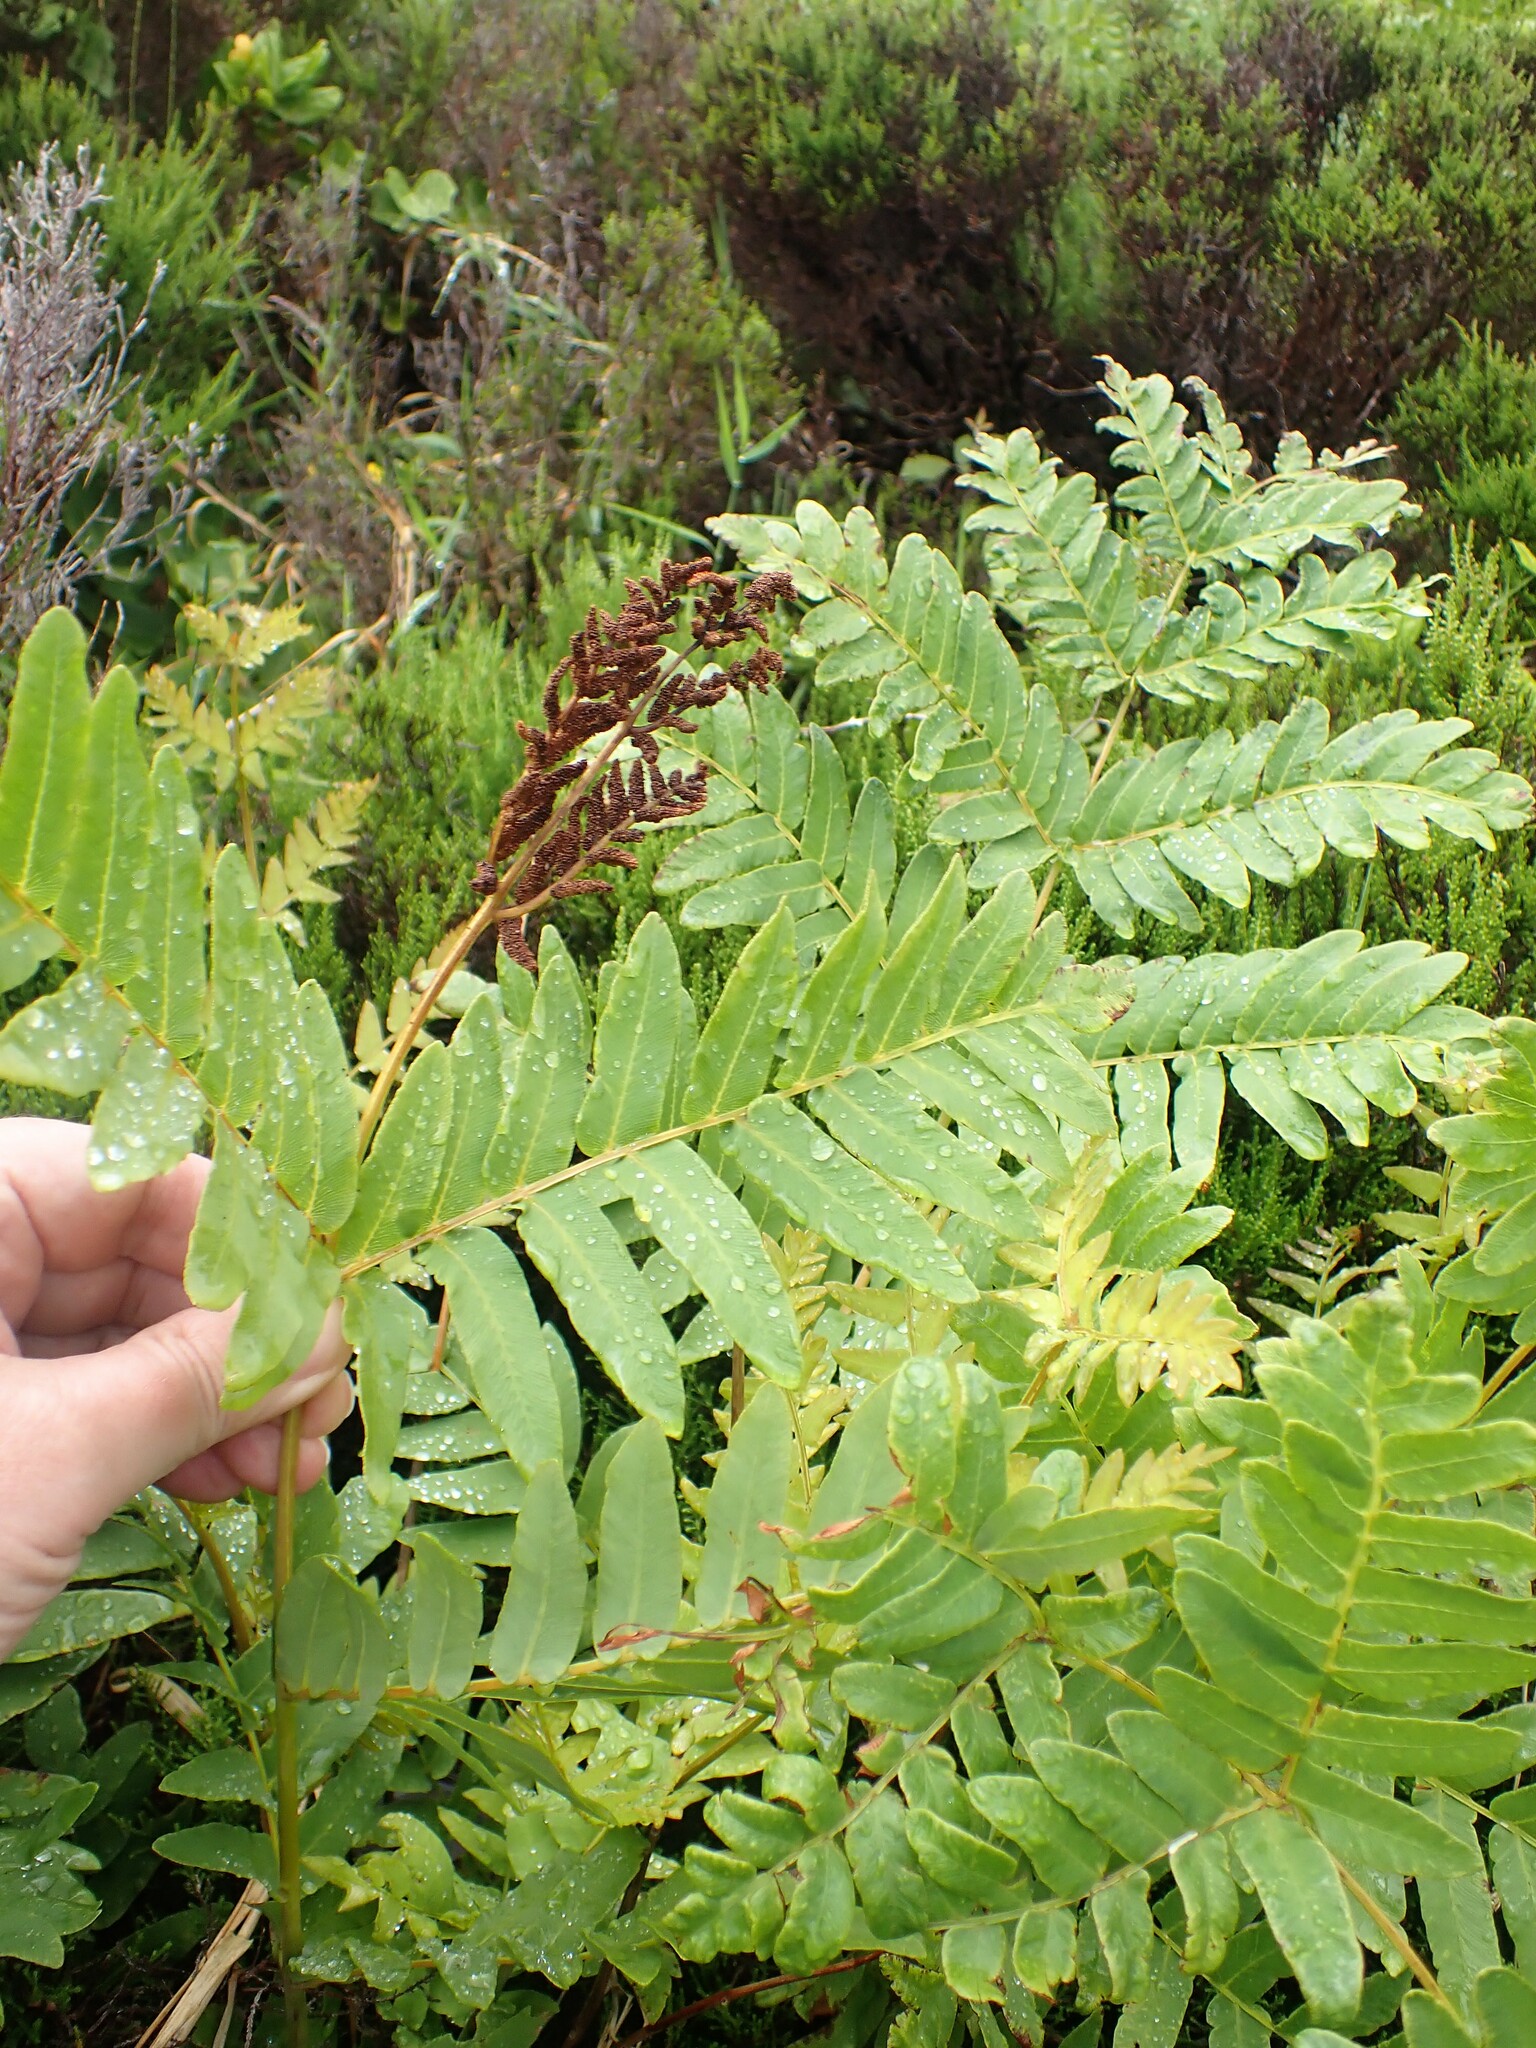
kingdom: Plantae
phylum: Tracheophyta
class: Polypodiopsida
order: Osmundales
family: Osmundaceae
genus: Osmunda
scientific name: Osmunda regalis
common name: Royal fern
